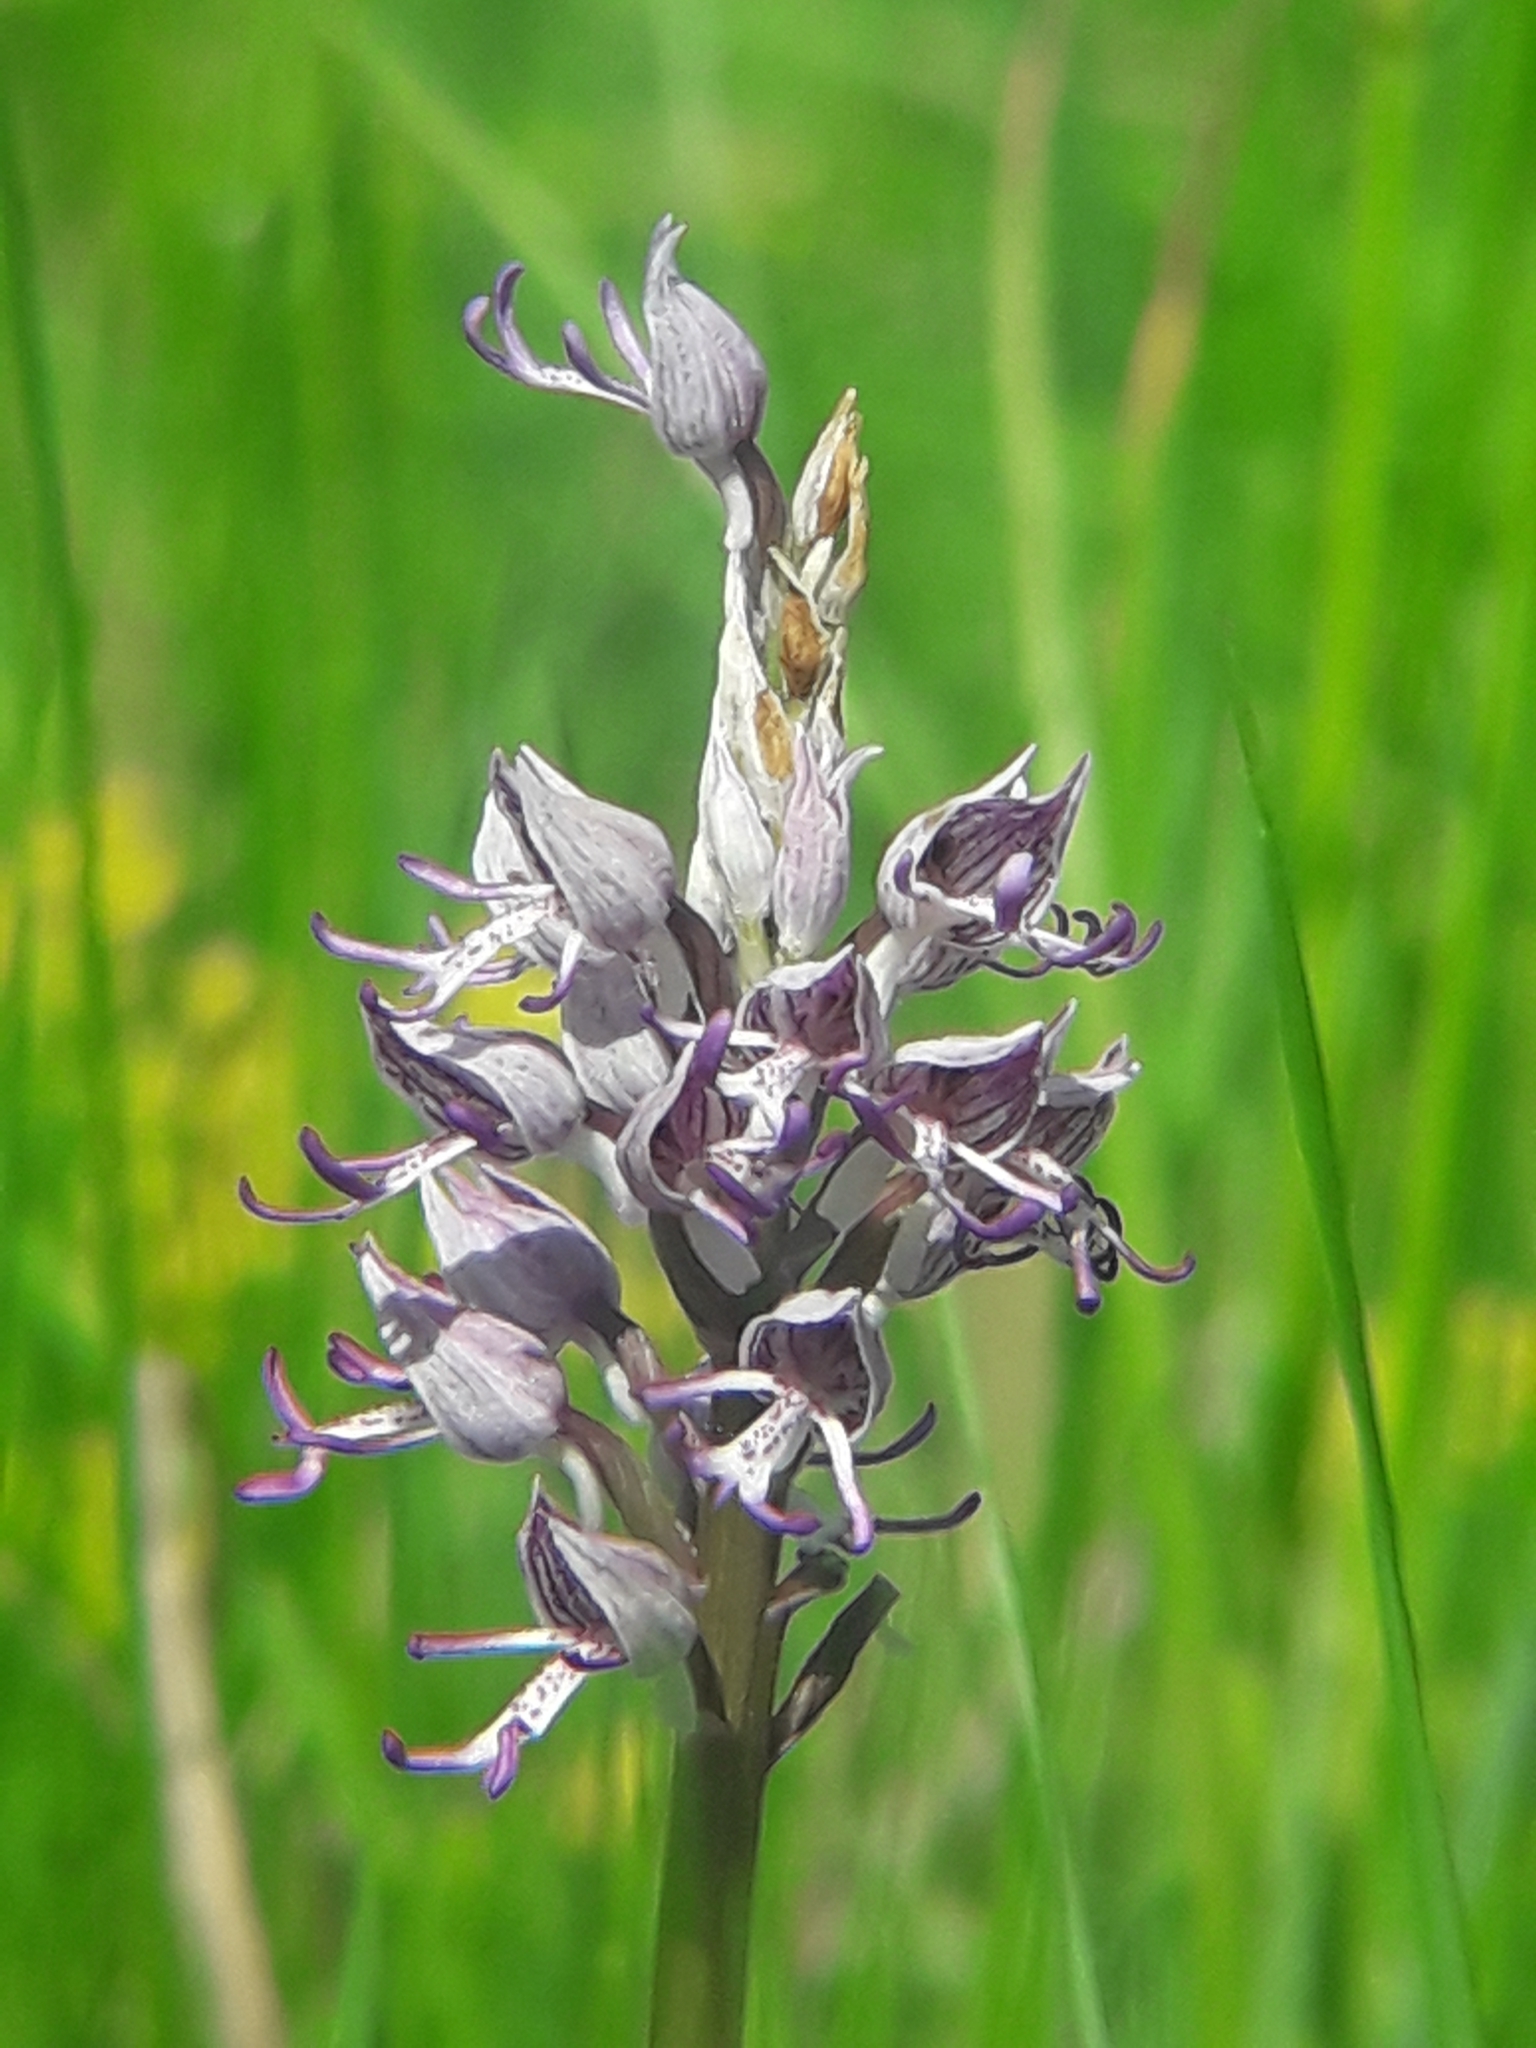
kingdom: Plantae
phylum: Tracheophyta
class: Liliopsida
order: Asparagales
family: Orchidaceae
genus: Orchis
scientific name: Orchis simia
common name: Monkey orchid
